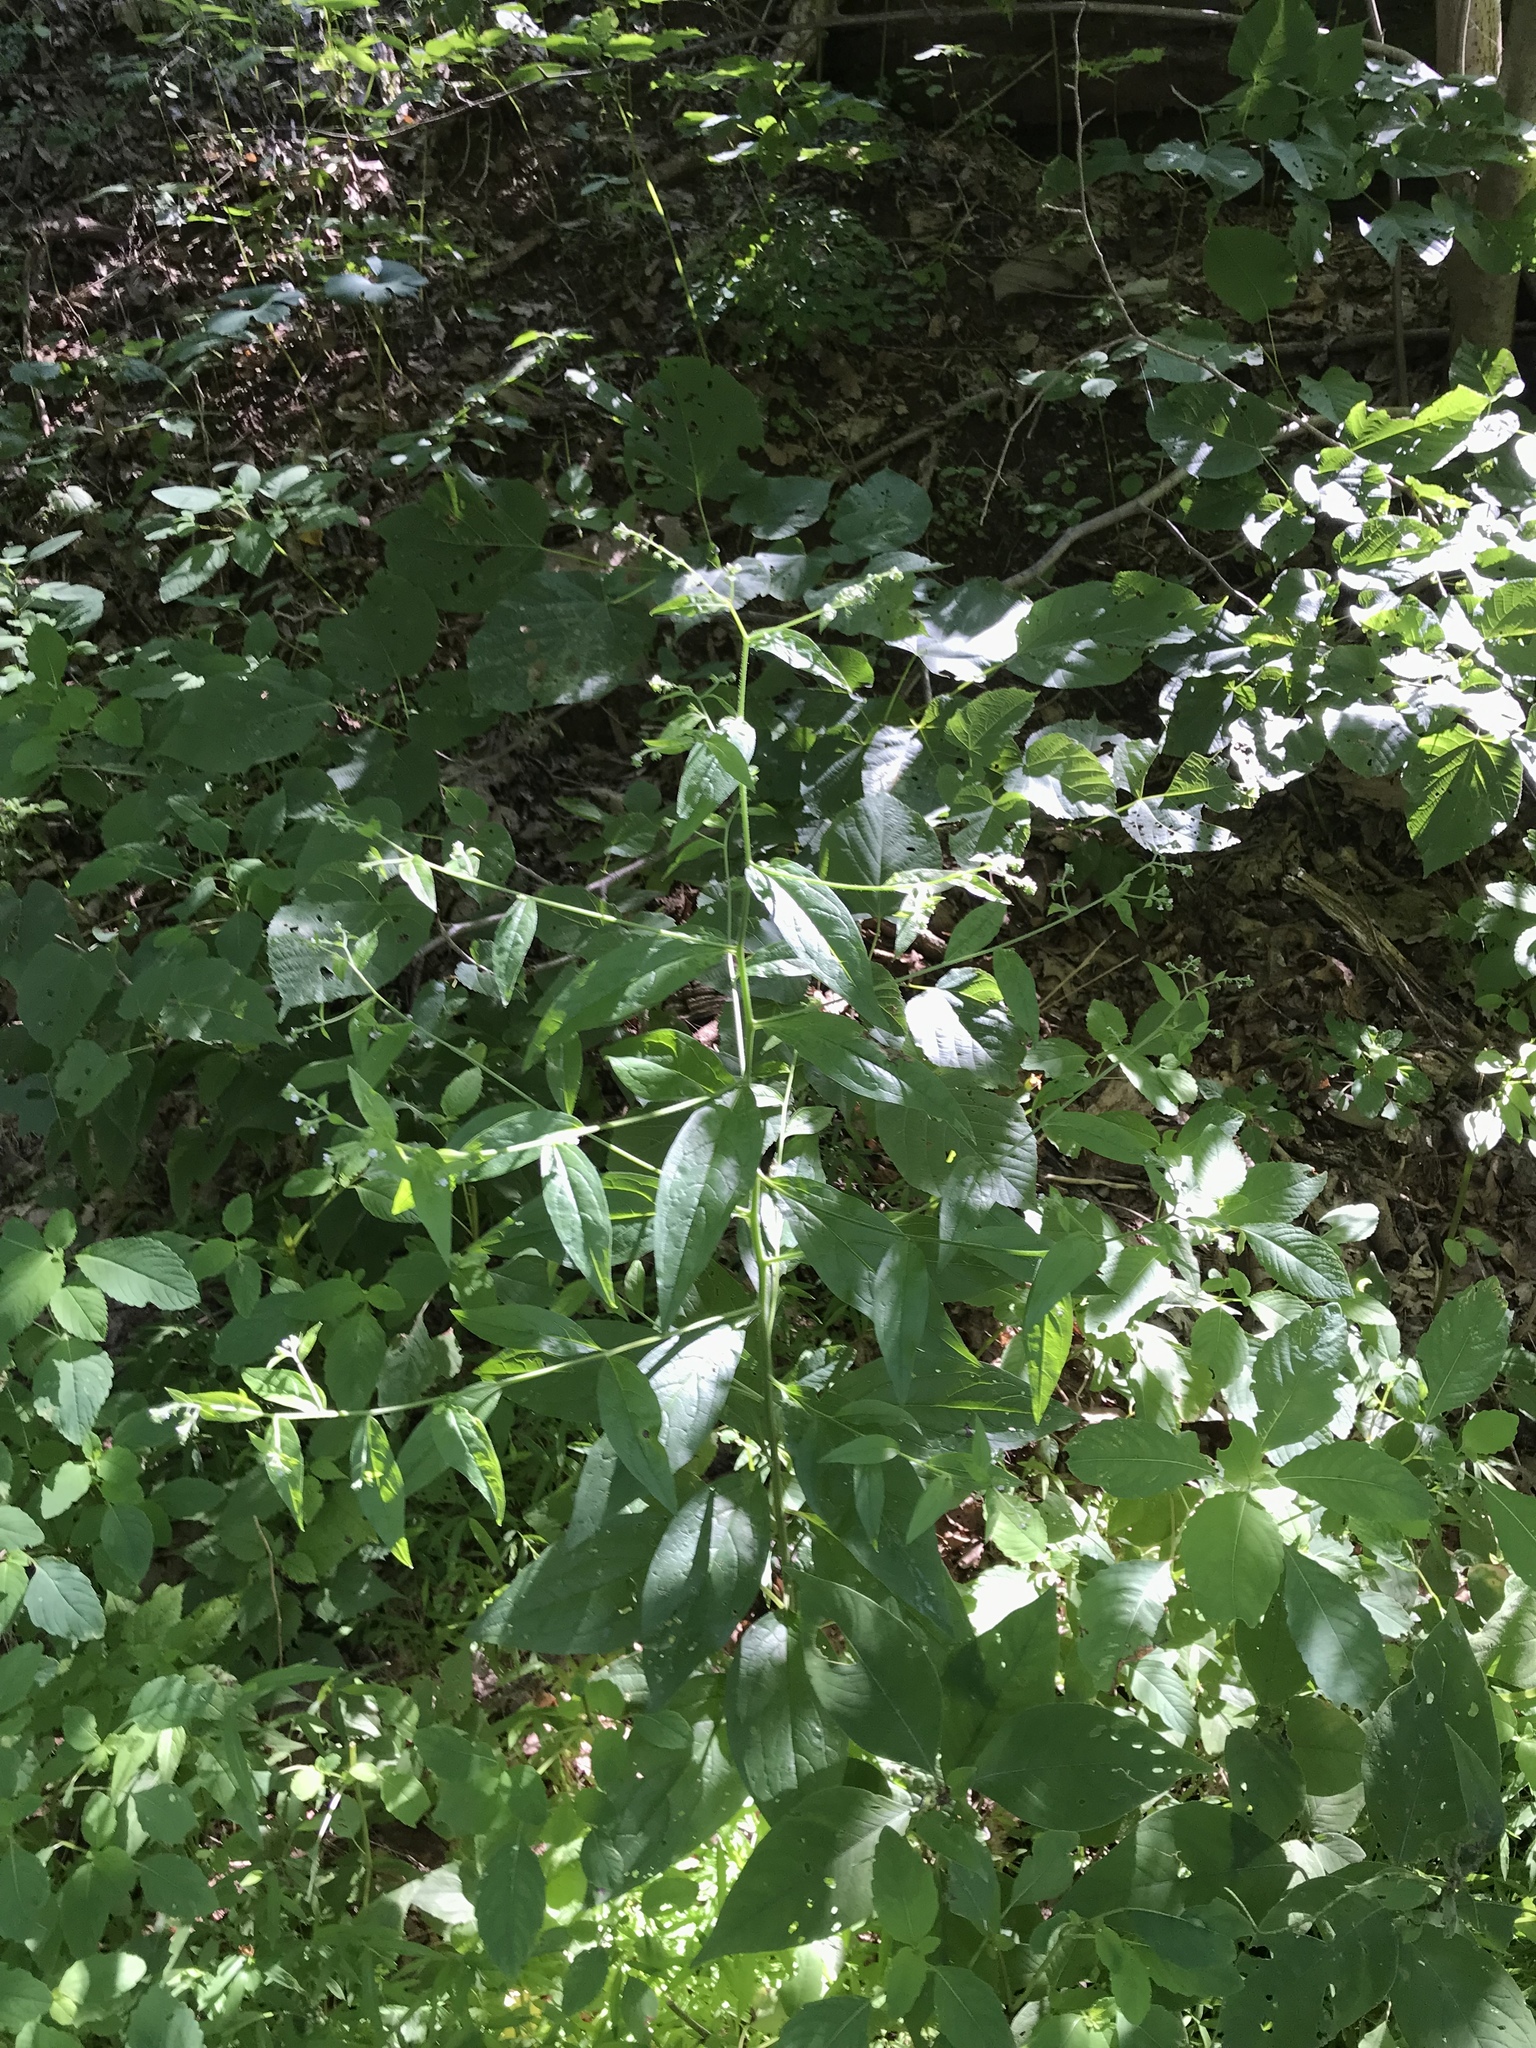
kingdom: Plantae
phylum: Tracheophyta
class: Magnoliopsida
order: Boraginales
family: Boraginaceae
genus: Hackelia
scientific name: Hackelia virginiana
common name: Beggar's-lice
